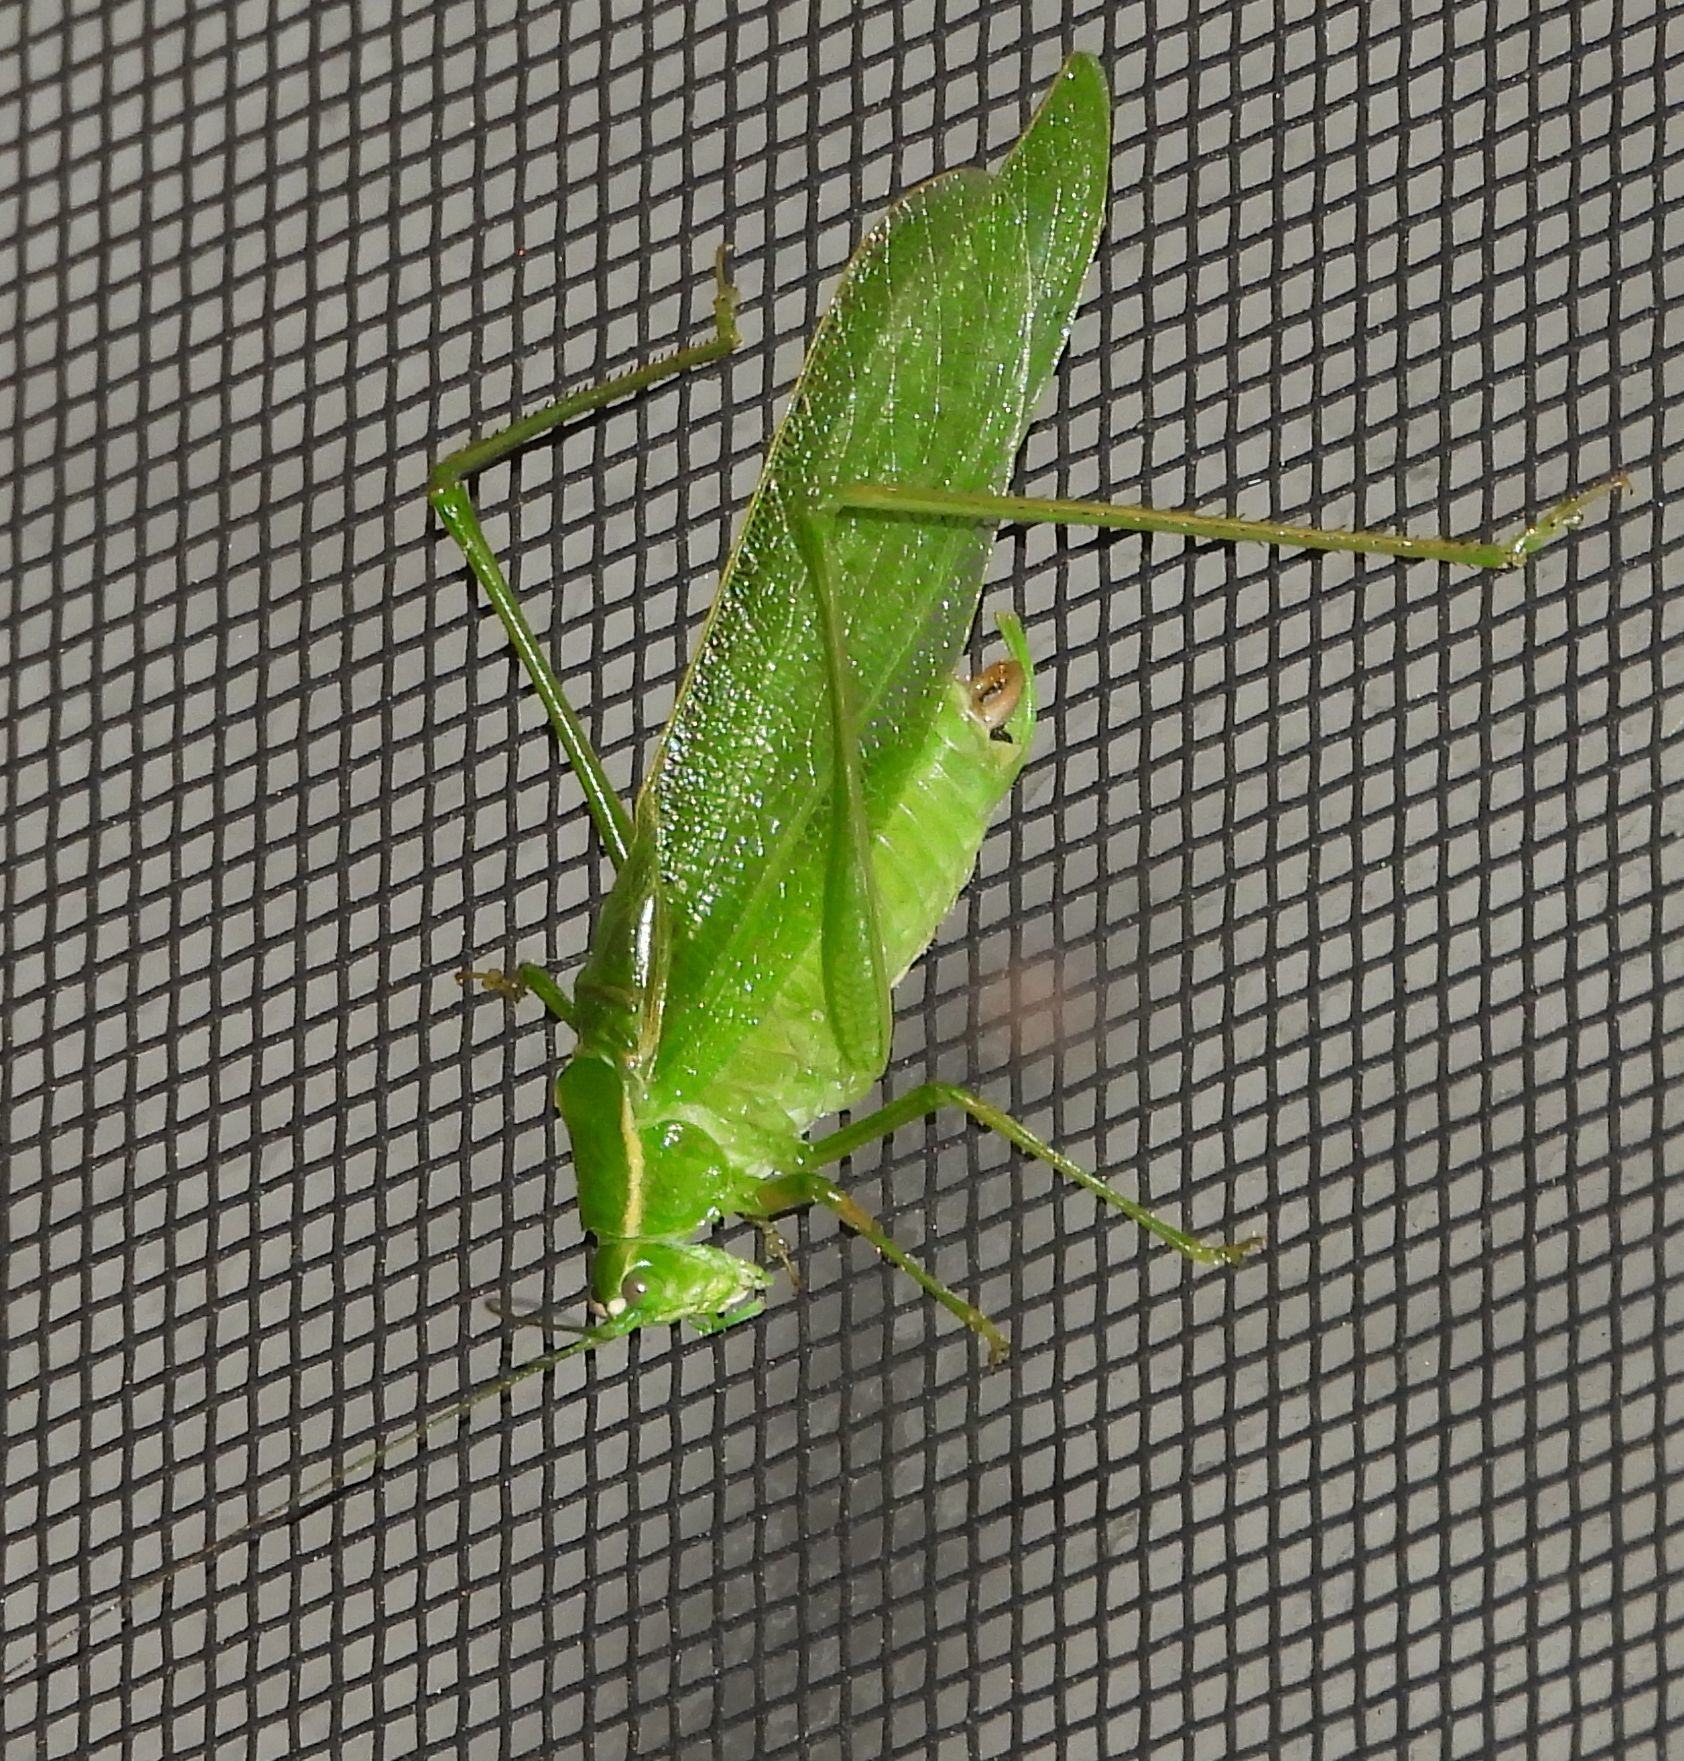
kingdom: Animalia
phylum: Arthropoda
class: Insecta
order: Orthoptera
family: Tettigoniidae
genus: Scudderia
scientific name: Scudderia septentrionalis
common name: Northern bush-katydid
